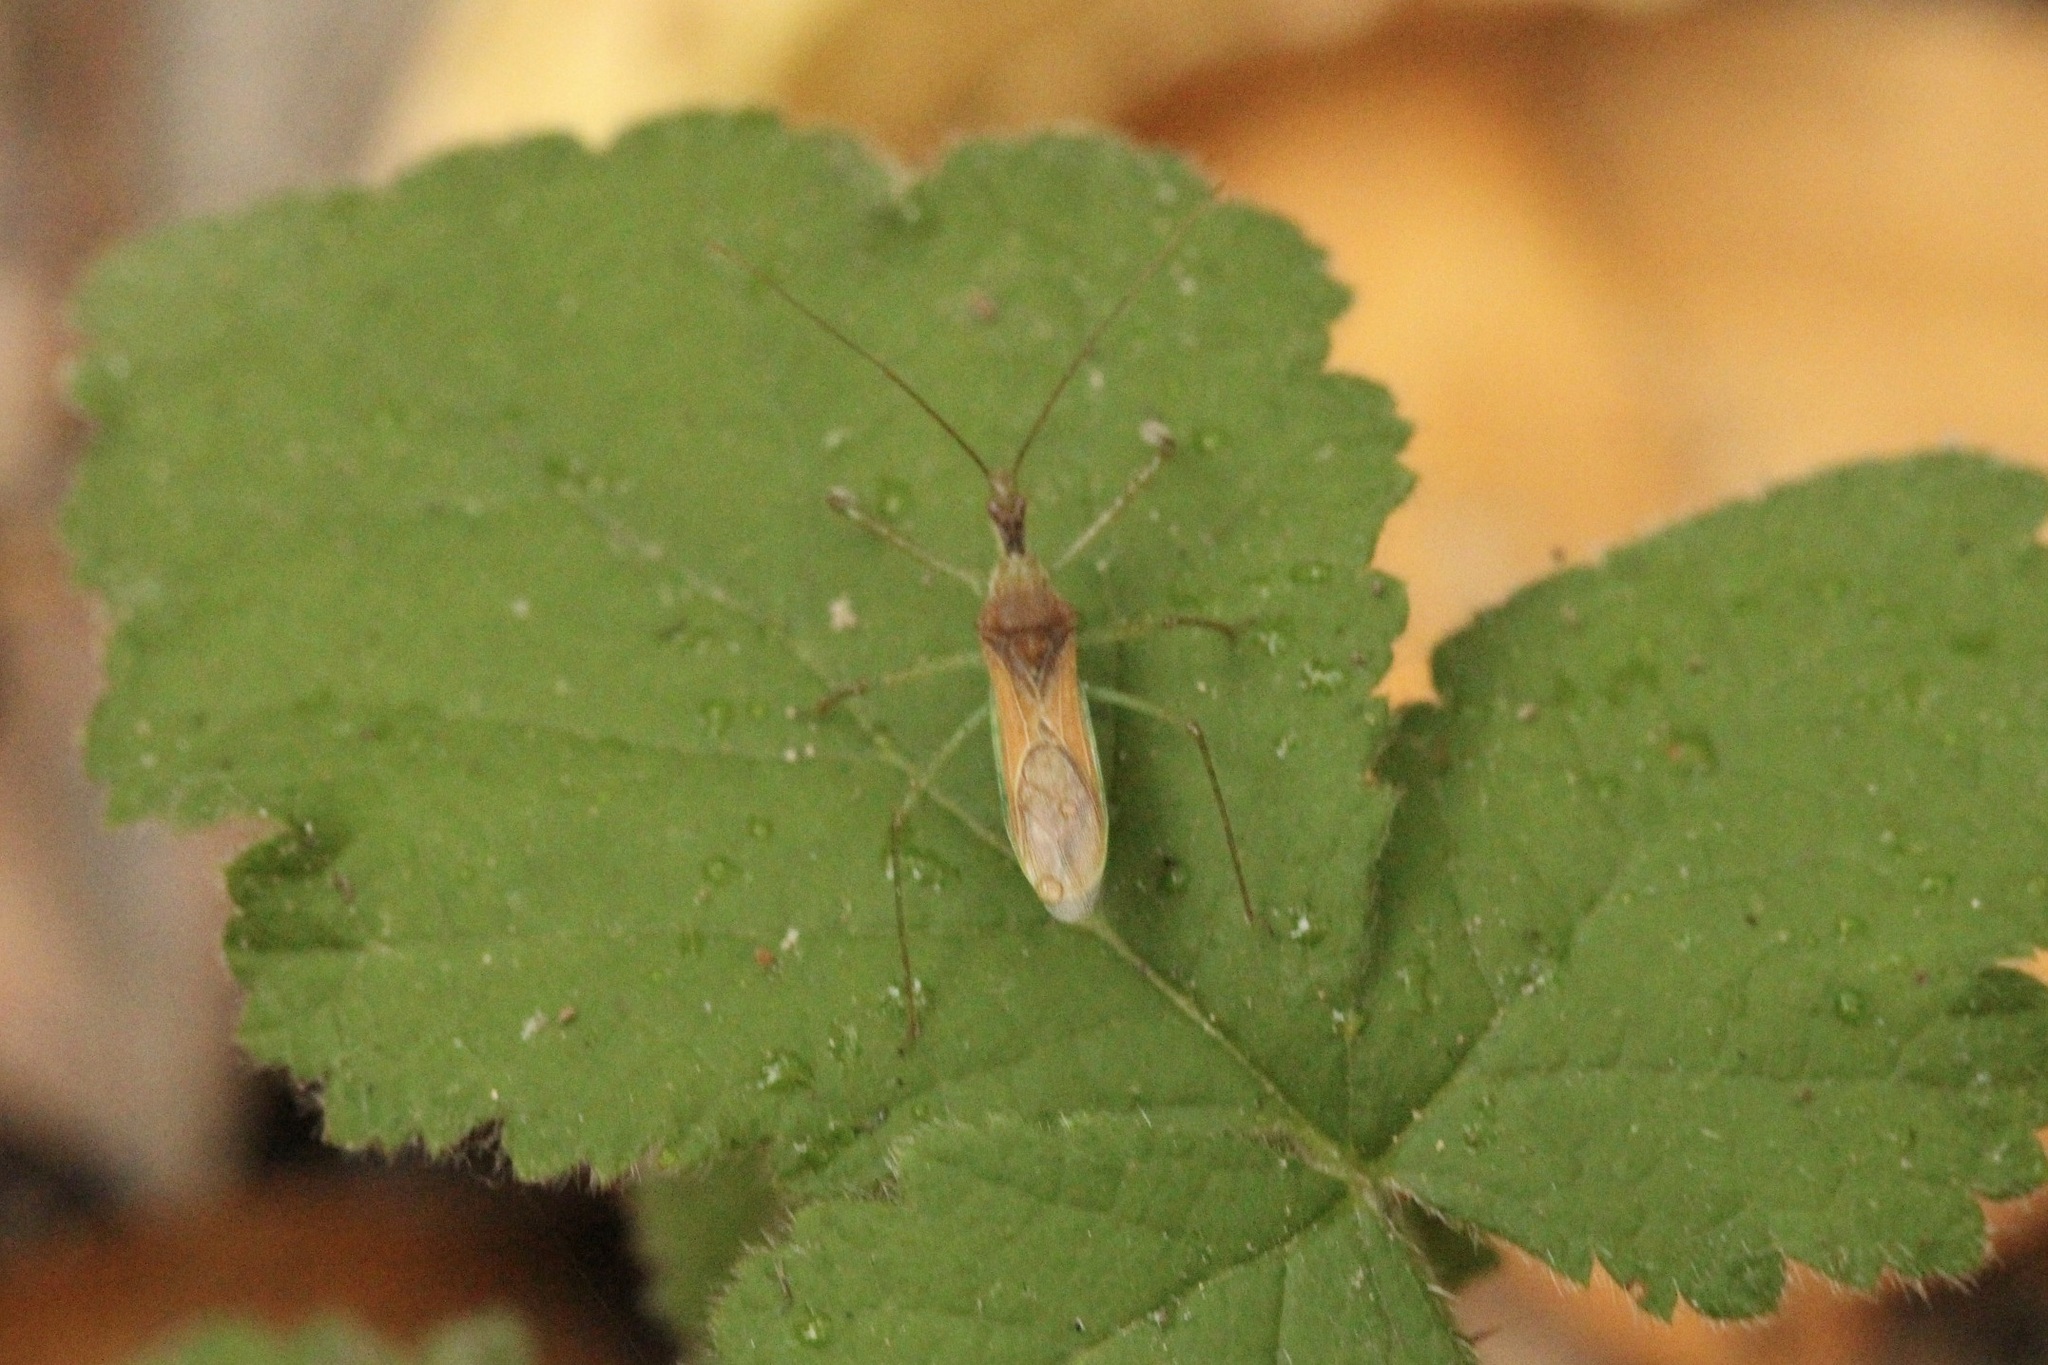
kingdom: Animalia
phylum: Arthropoda
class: Insecta
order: Hemiptera
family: Reduviidae
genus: Zelus
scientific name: Zelus renardii
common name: Assassin bug
